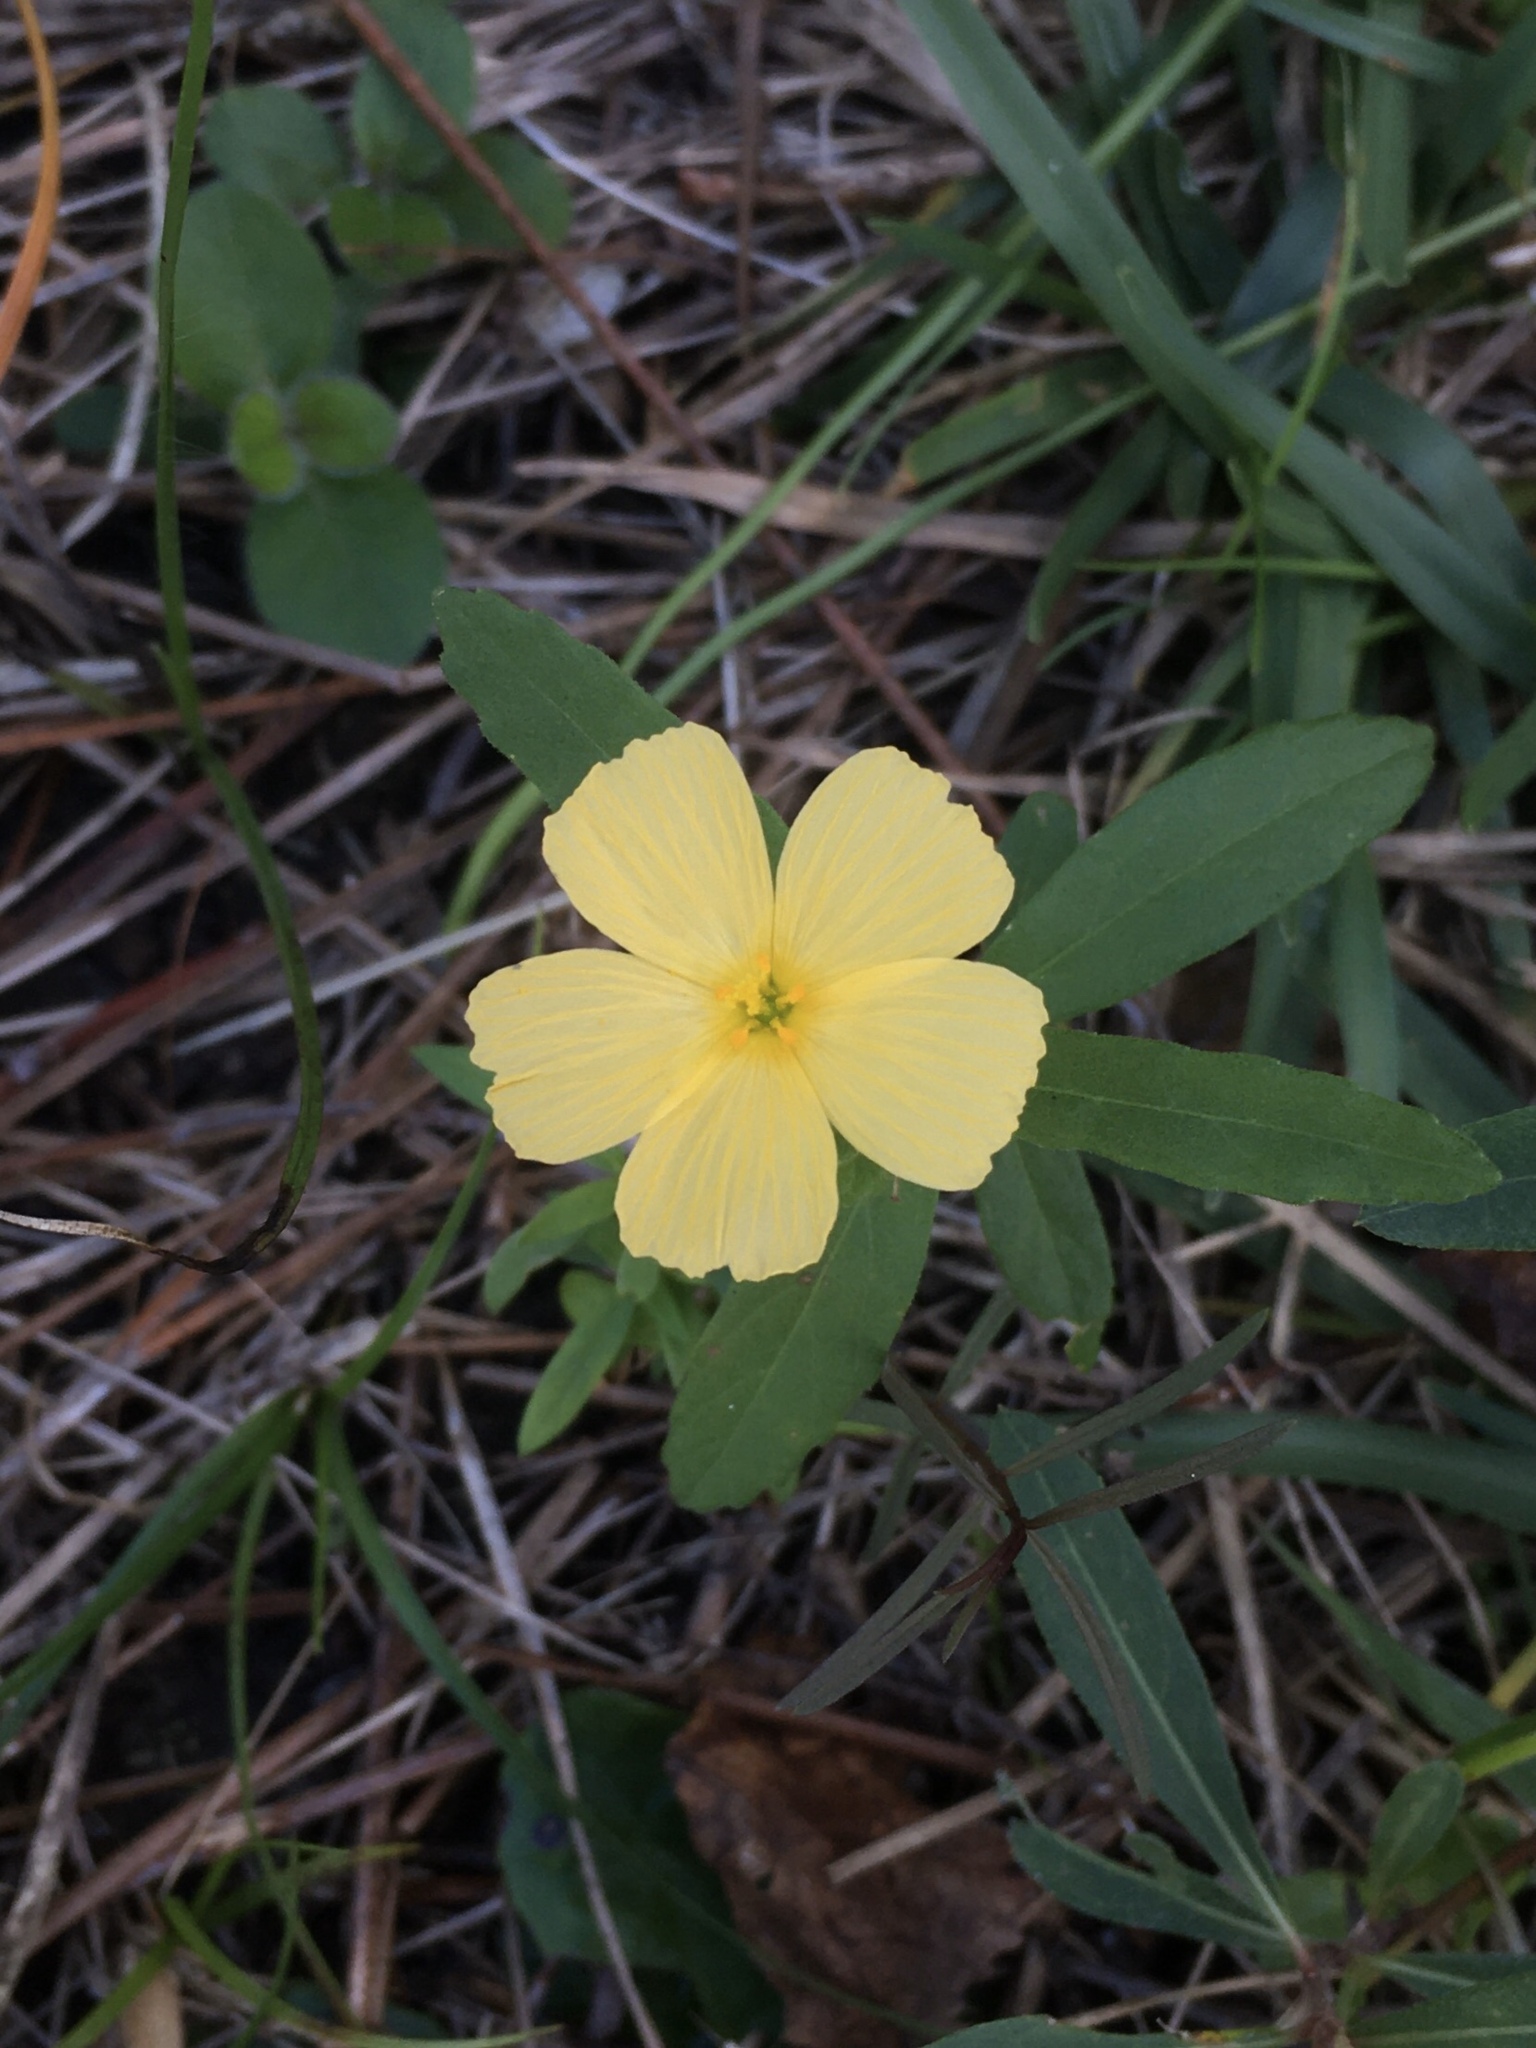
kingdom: Plantae
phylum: Tracheophyta
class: Magnoliopsida
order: Malpighiales
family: Turneraceae
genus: Piriqueta
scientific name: Piriqueta cistoides
